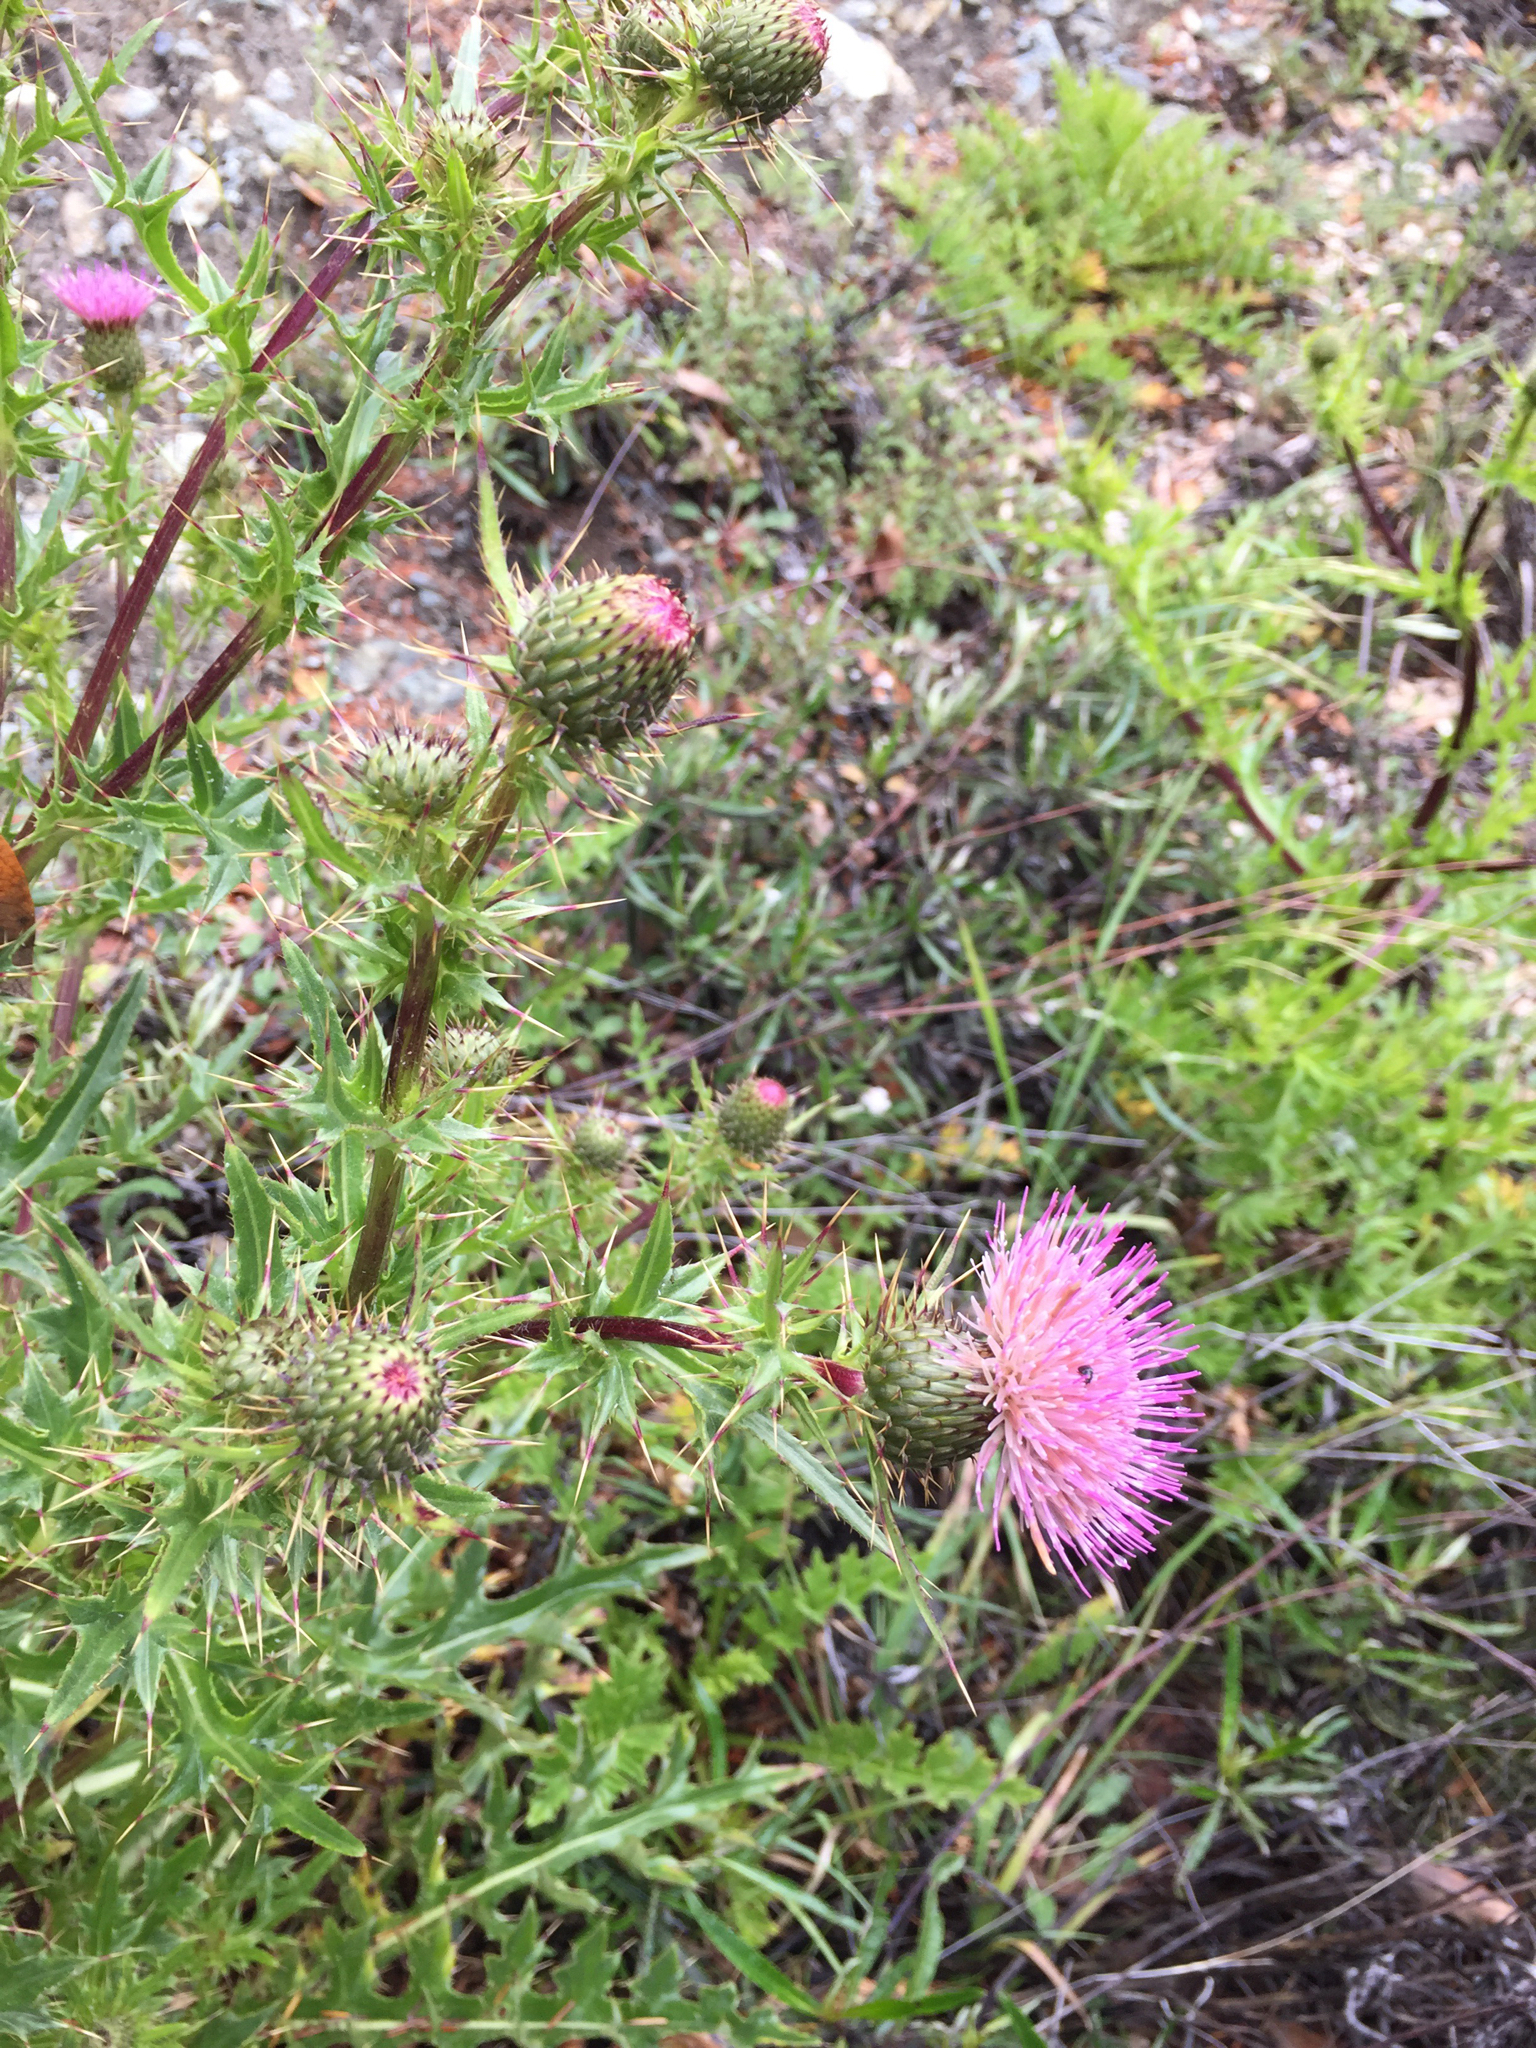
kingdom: Plantae
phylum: Tracheophyta
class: Magnoliopsida
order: Asterales
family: Asteraceae
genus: Cirsium
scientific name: Cirsium hydrophilum
